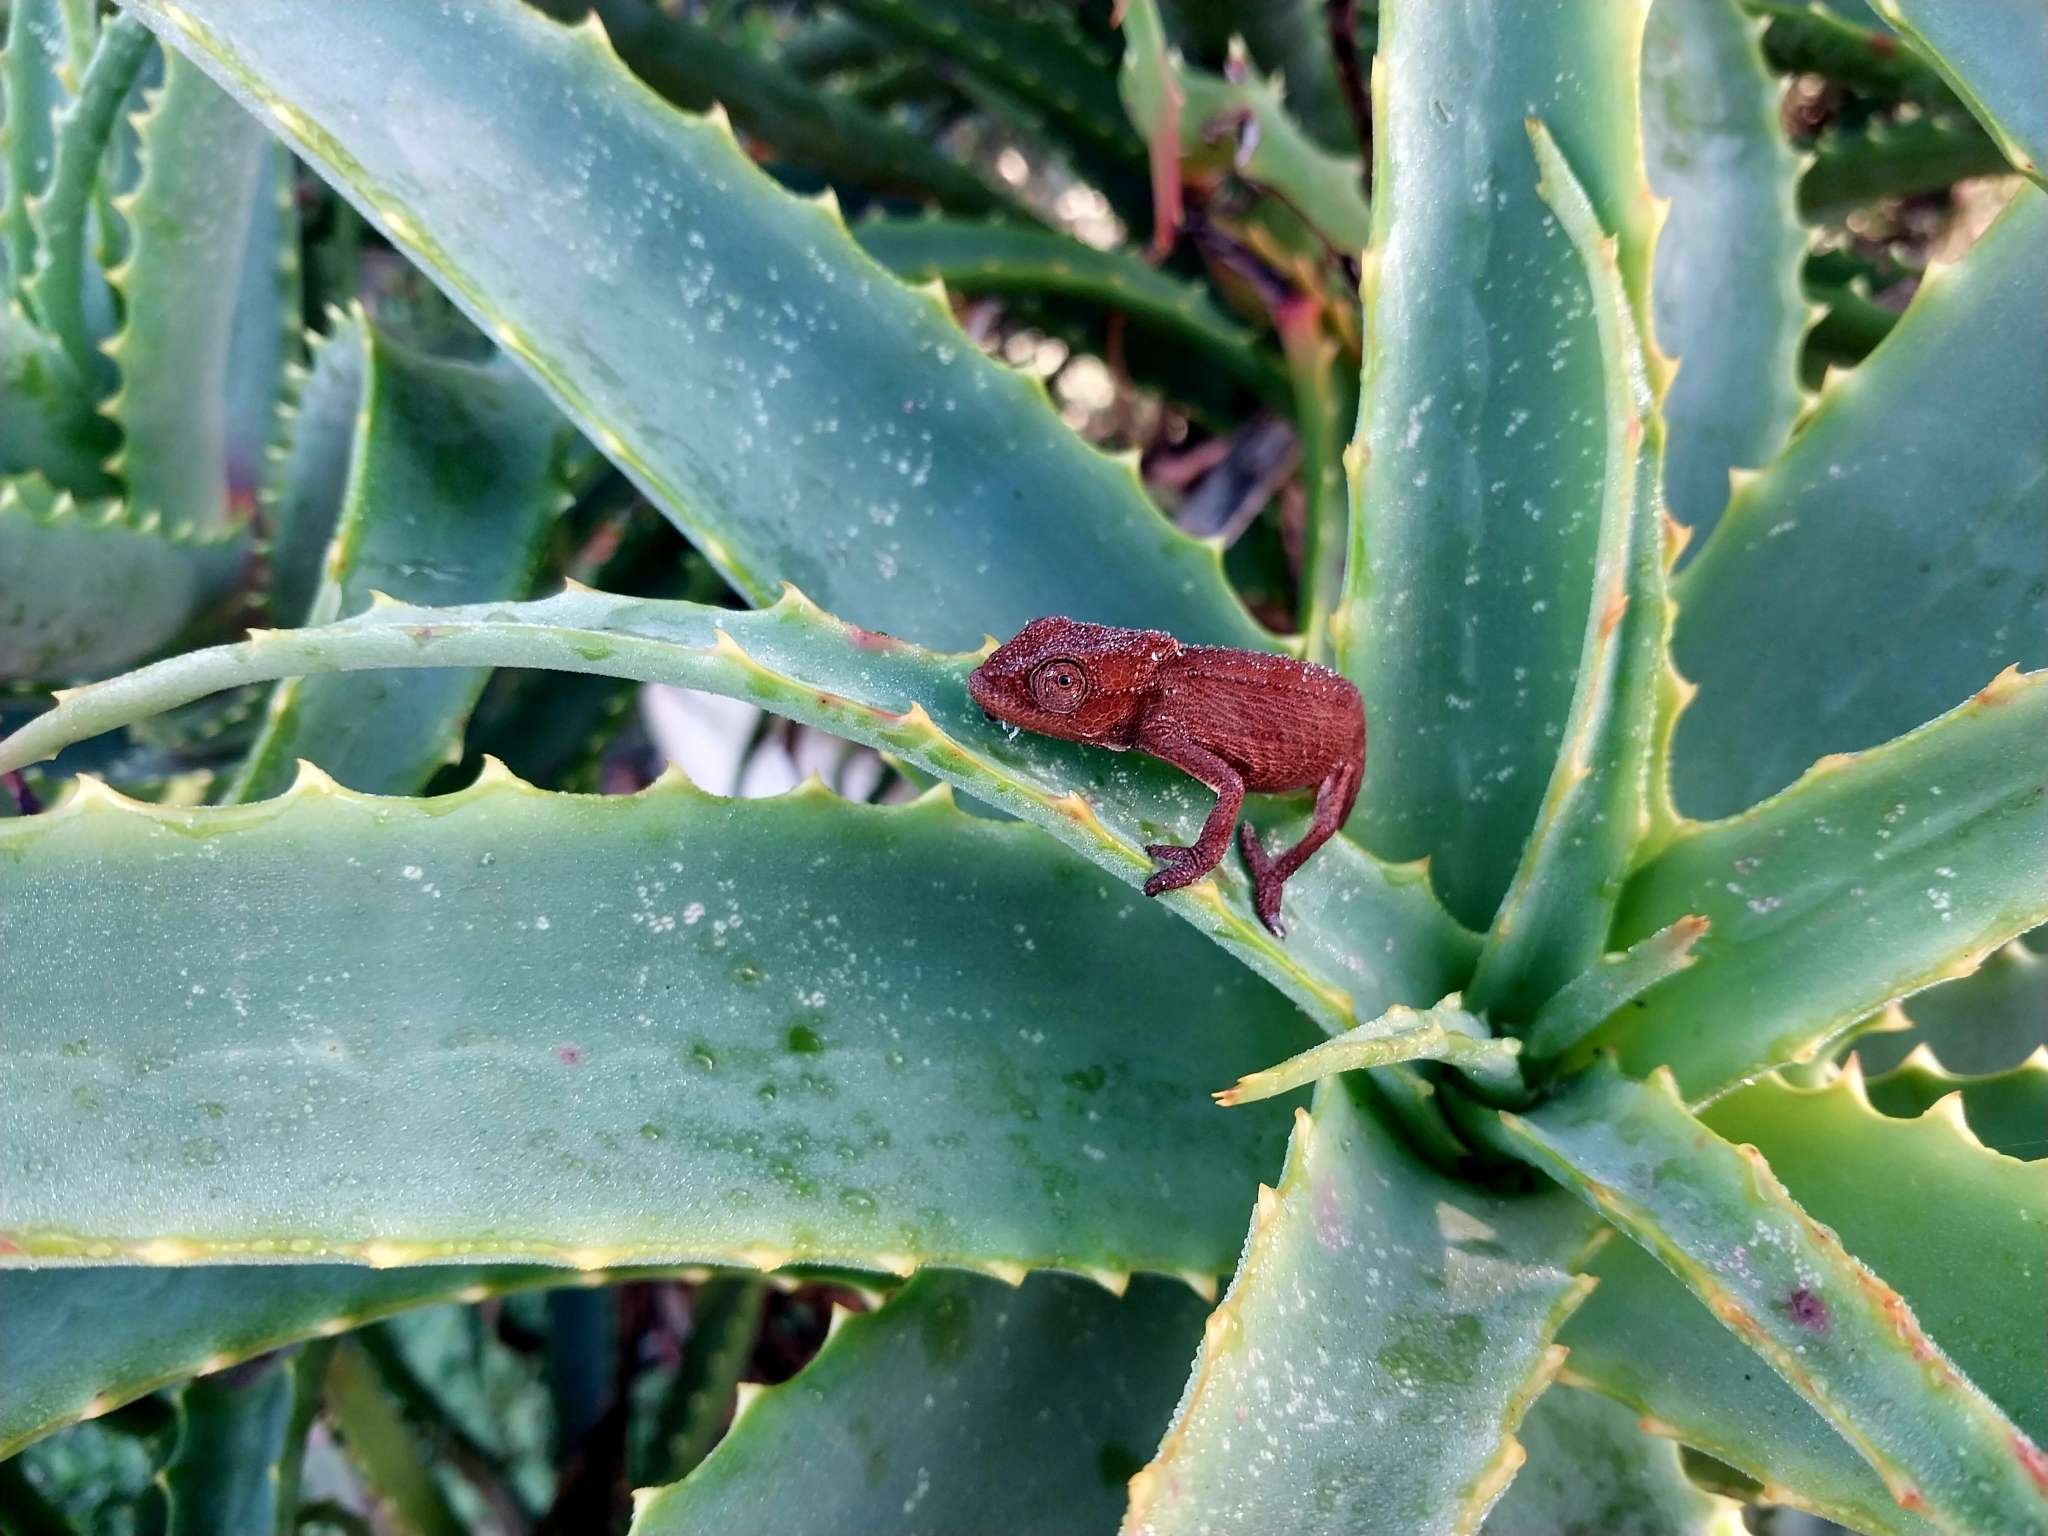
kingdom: Animalia
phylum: Chordata
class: Squamata
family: Chamaeleonidae
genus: Bradypodion
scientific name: Bradypodion damaranum
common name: Knysna dwarf chameleon
